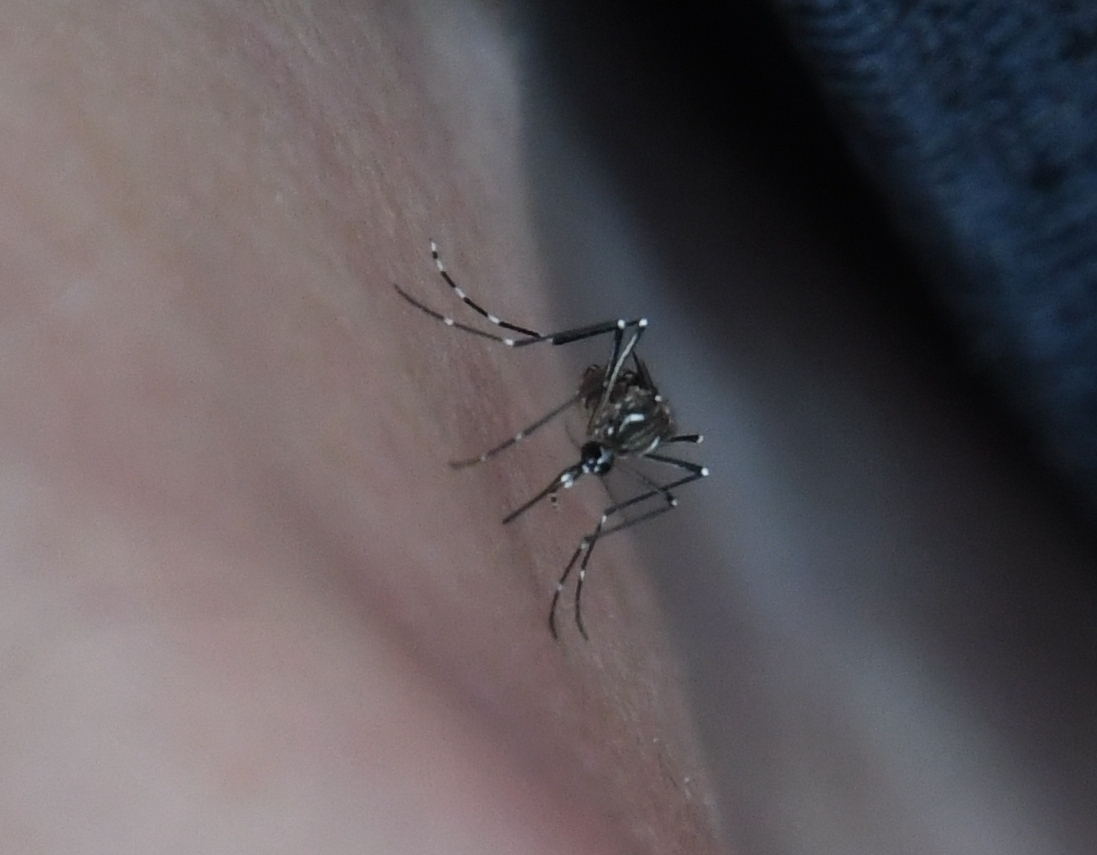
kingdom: Animalia
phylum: Arthropoda
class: Insecta
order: Diptera
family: Culicidae
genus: Aedes
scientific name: Aedes aegypti
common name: Yellow fever mosquito
